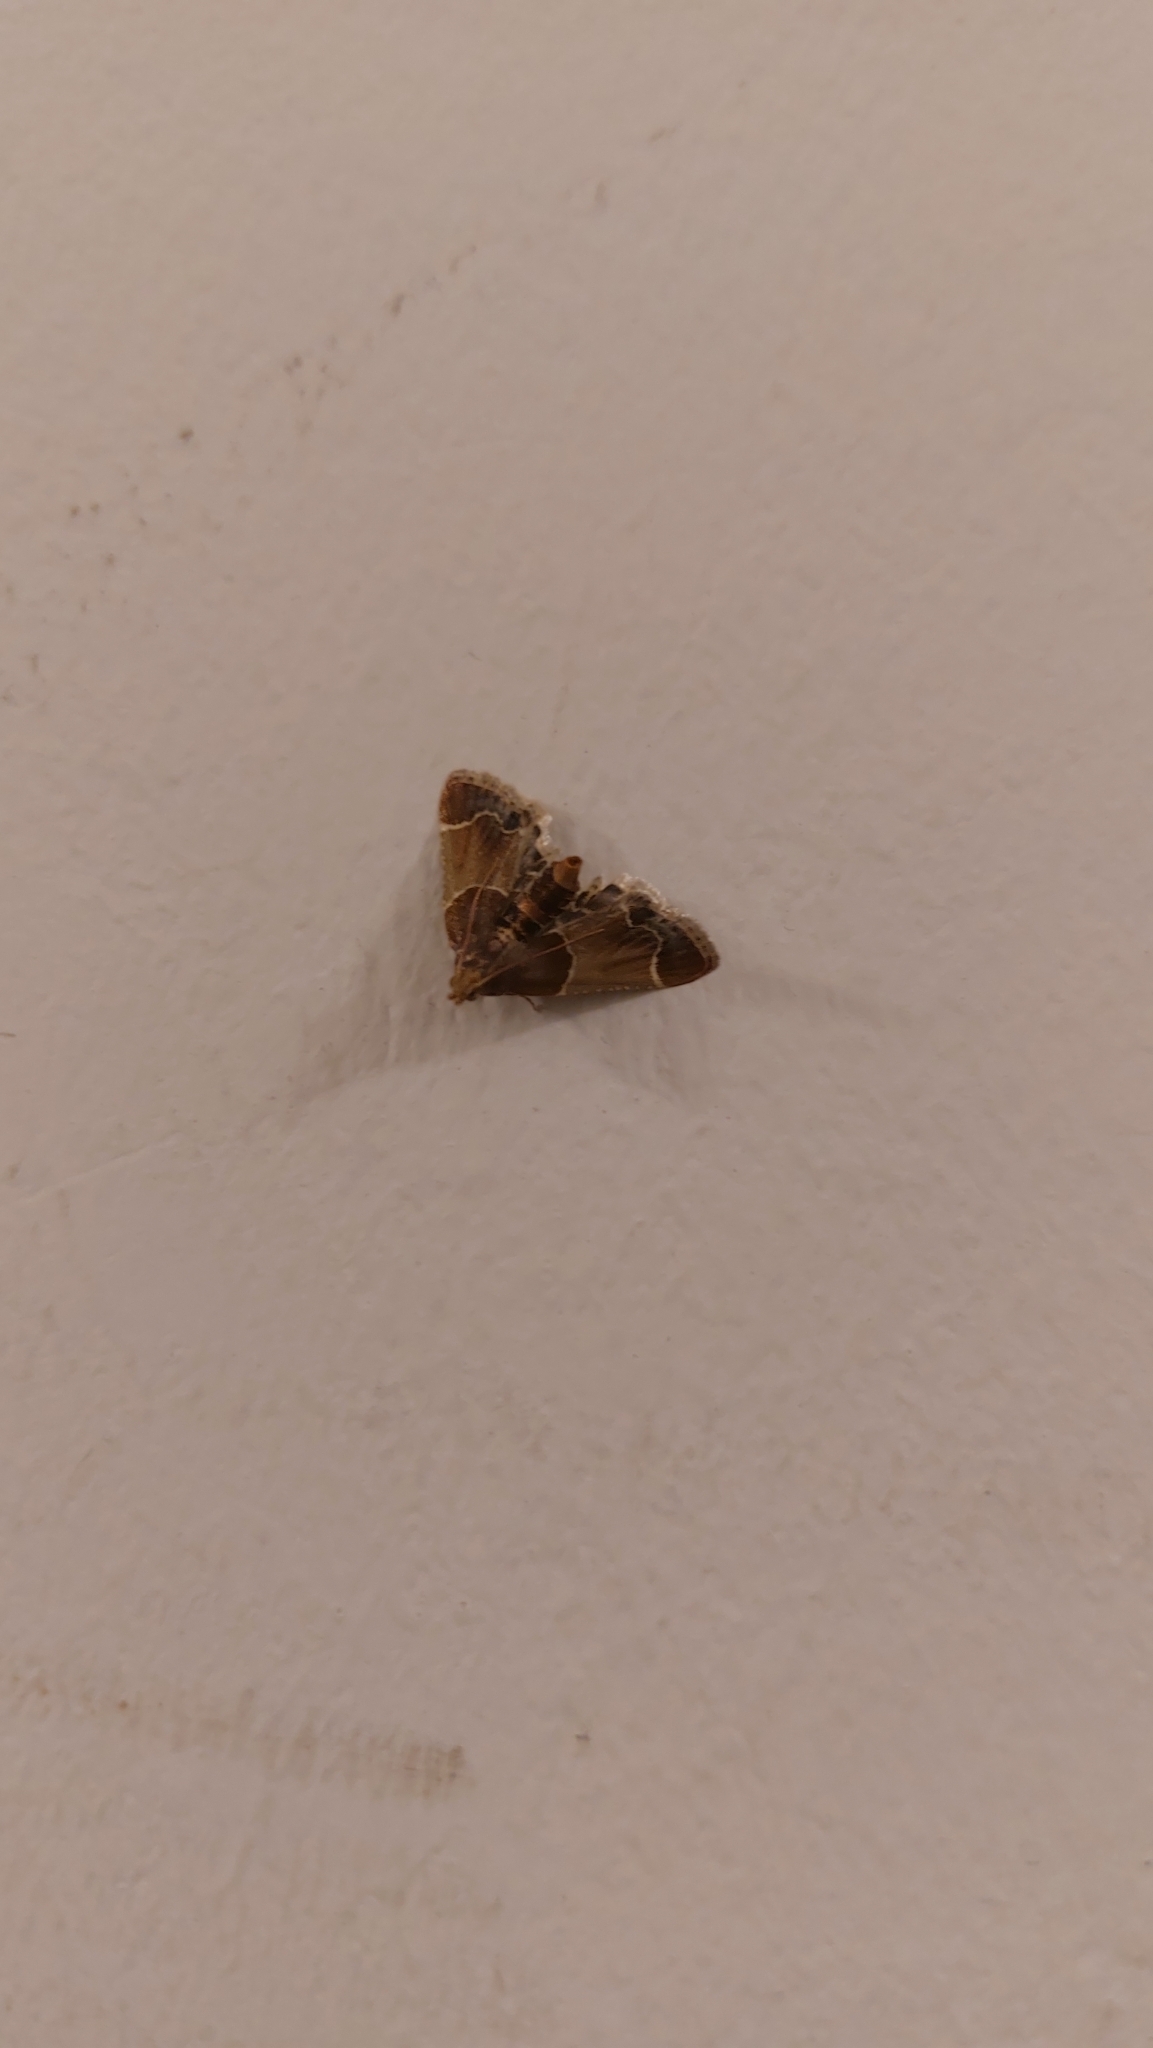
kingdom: Animalia
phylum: Arthropoda
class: Insecta
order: Lepidoptera
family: Pyralidae
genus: Pyralis
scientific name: Pyralis farinalis
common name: Meal moth
